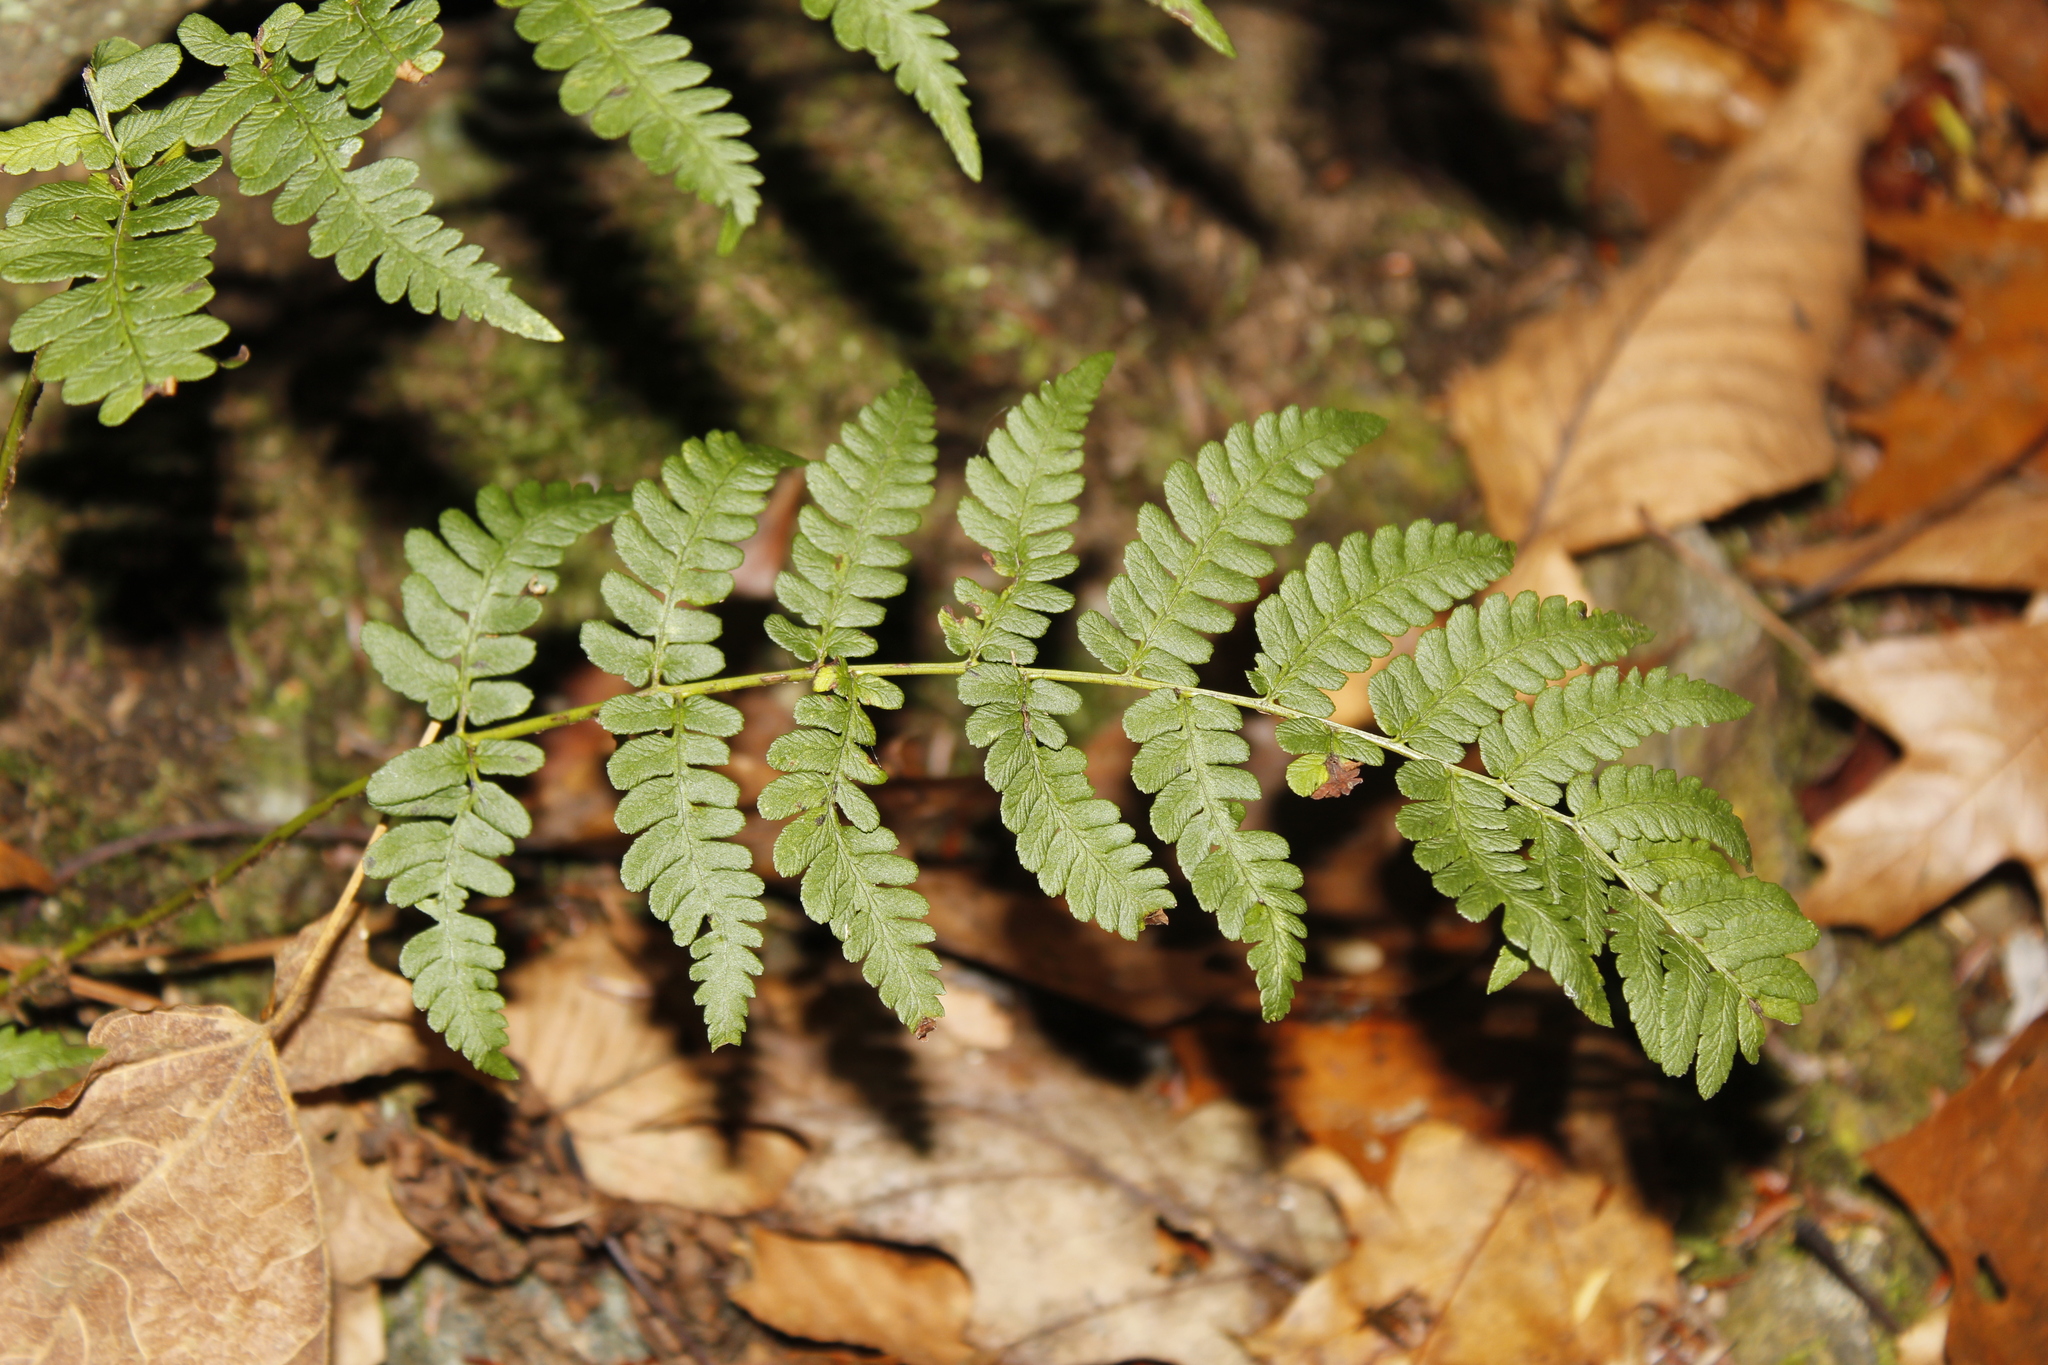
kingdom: Plantae
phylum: Tracheophyta
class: Polypodiopsida
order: Polypodiales
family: Dryopteridaceae
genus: Dryopteris
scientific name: Dryopteris marginalis
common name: Marginal wood fern
